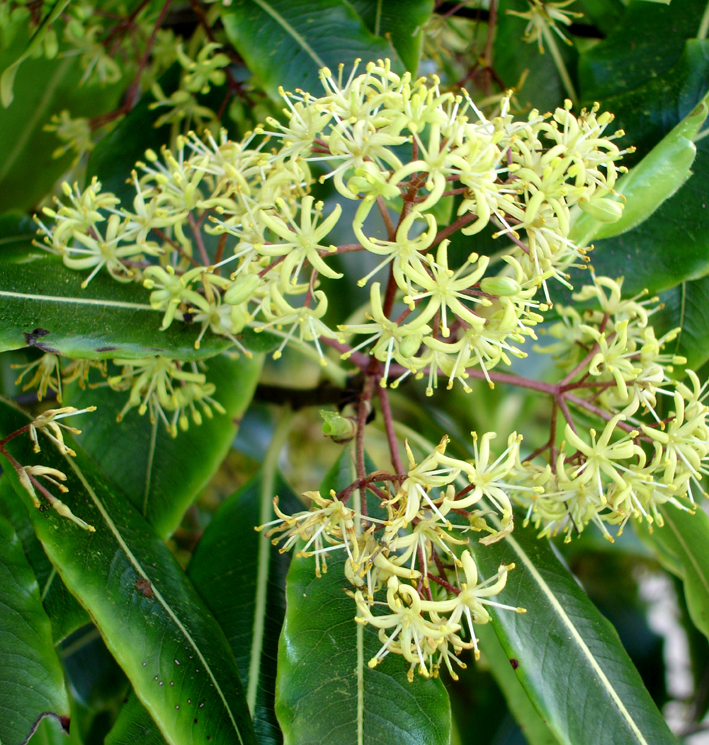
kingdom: Plantae
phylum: Tracheophyta
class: Magnoliopsida
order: Apiales
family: Pittosporaceae
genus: Pittosporum
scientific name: Pittosporum eugenioides
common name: Lemonwood
